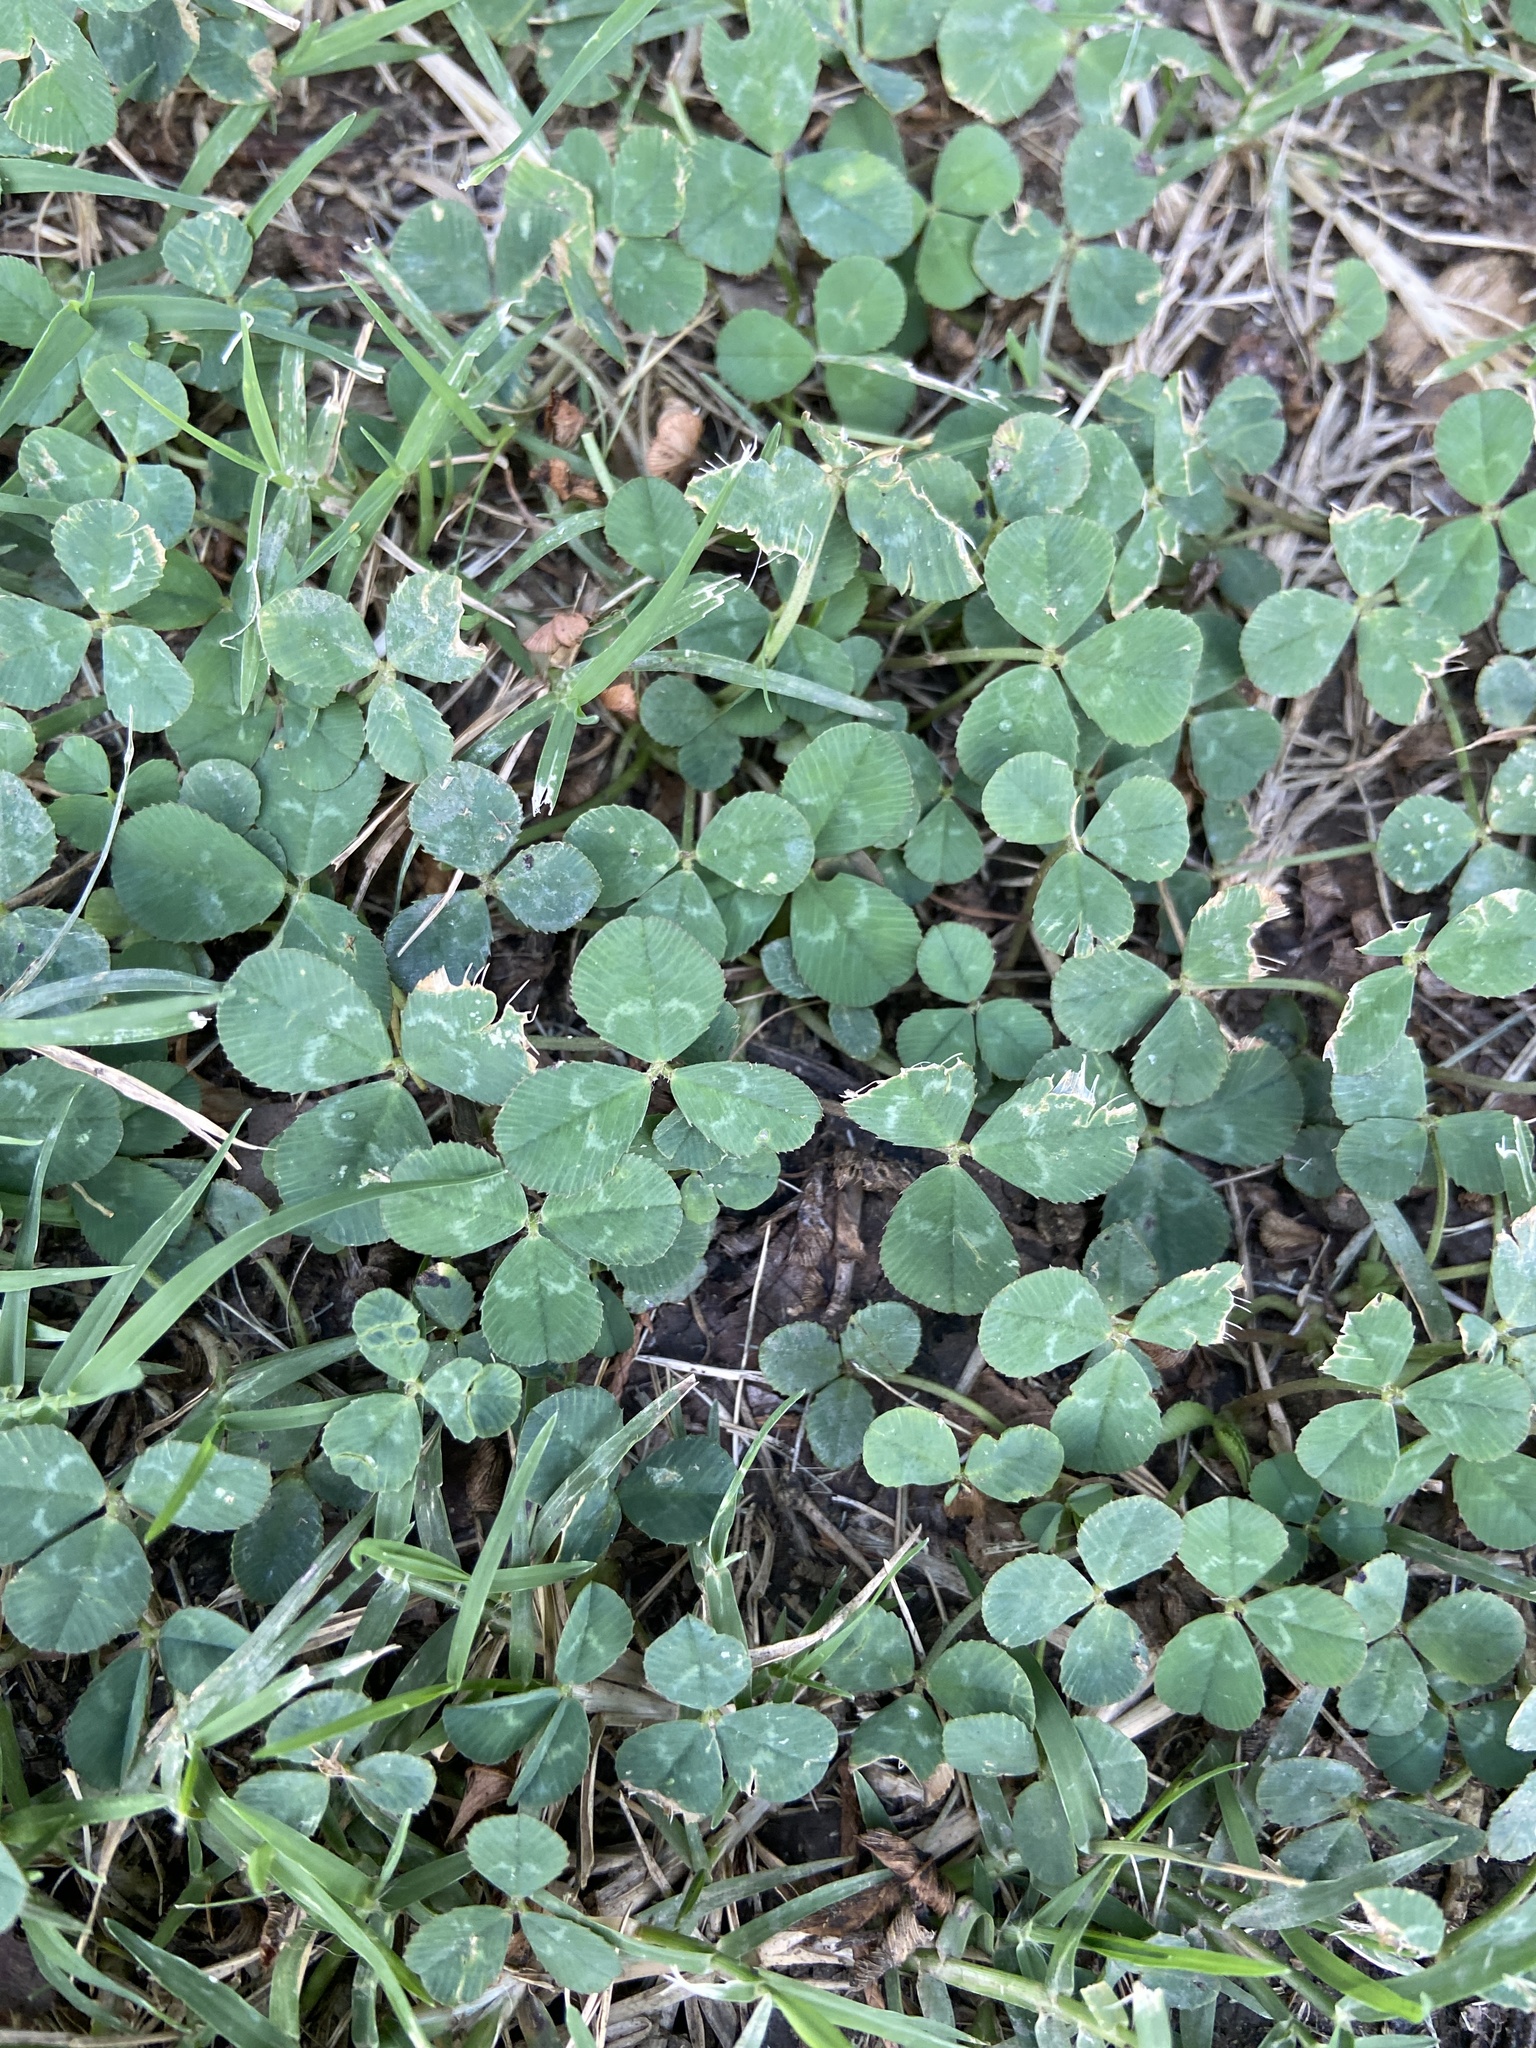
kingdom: Plantae
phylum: Tracheophyta
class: Magnoliopsida
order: Fabales
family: Fabaceae
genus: Trifolium
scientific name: Trifolium repens
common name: White clover
